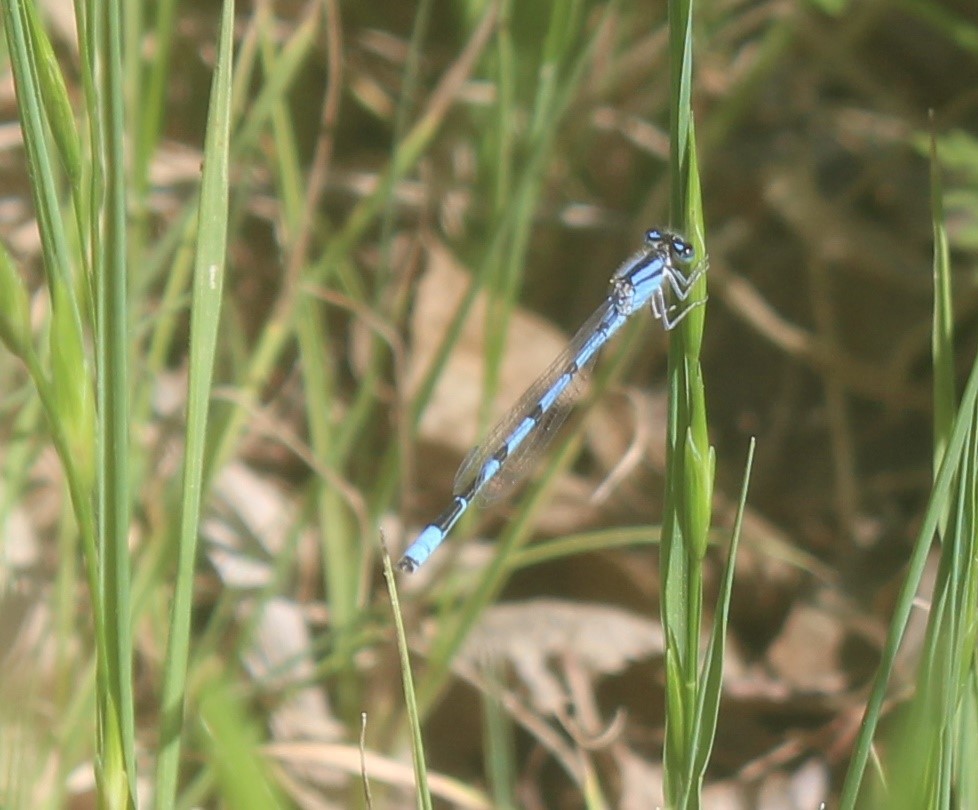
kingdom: Animalia
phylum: Arthropoda
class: Insecta
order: Odonata
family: Coenagrionidae
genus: Enallagma
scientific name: Enallagma civile
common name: Damselfly
